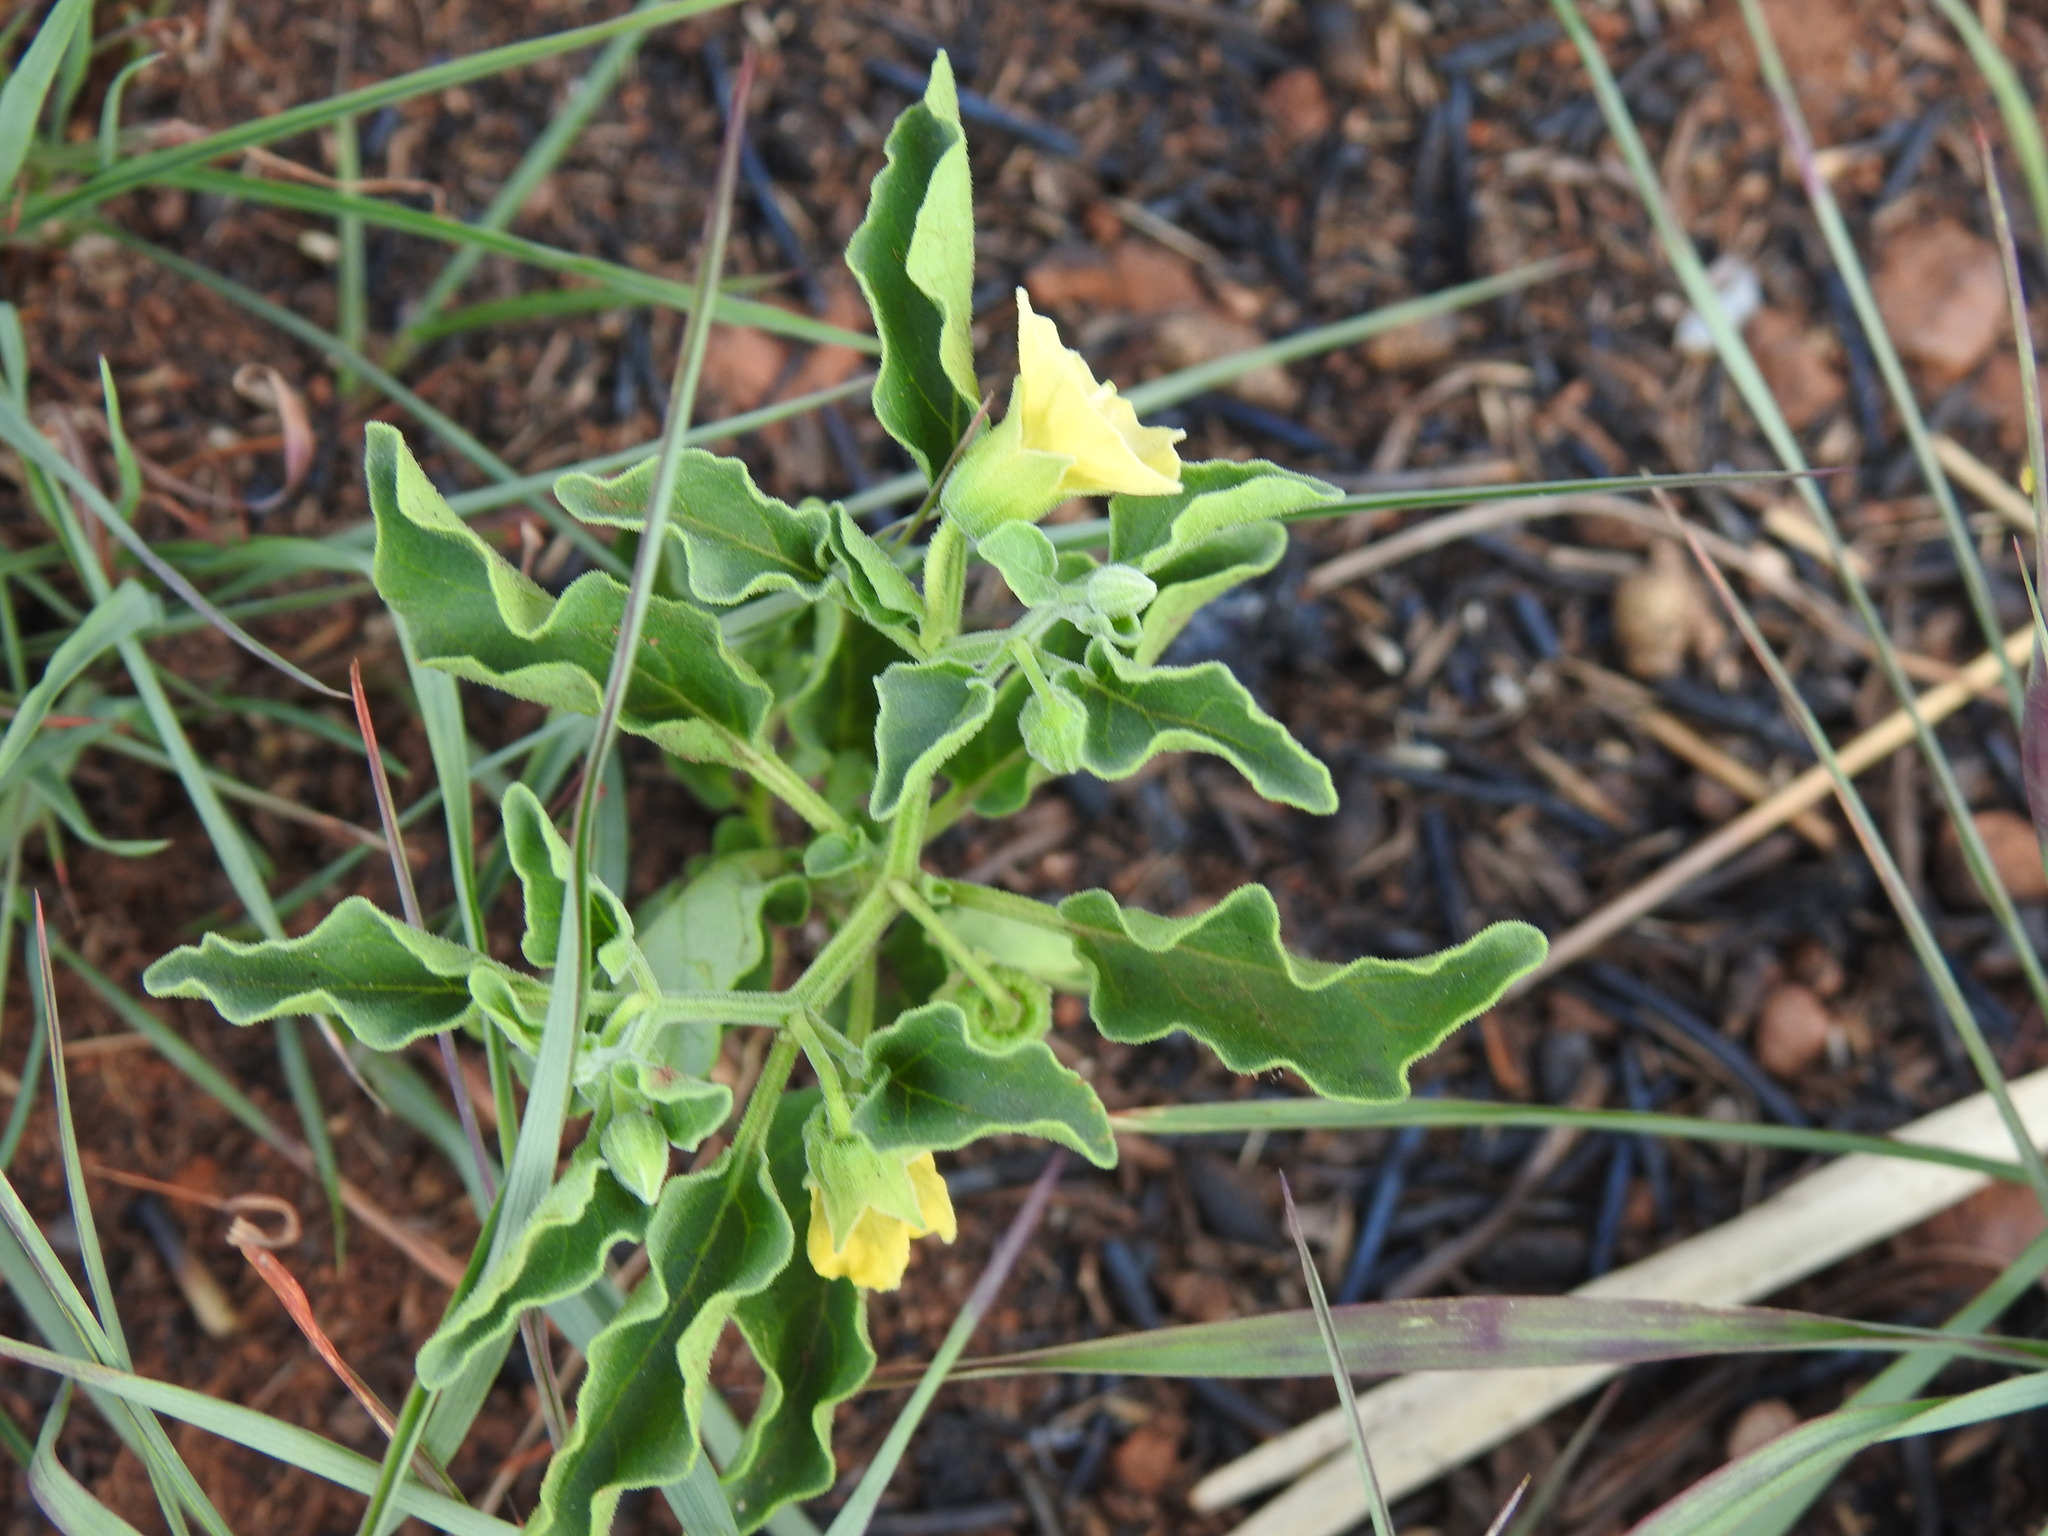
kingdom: Plantae
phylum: Tracheophyta
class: Magnoliopsida
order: Solanales
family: Solanaceae
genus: Physalis
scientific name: Physalis viscosa
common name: Stellate ground-cherry
